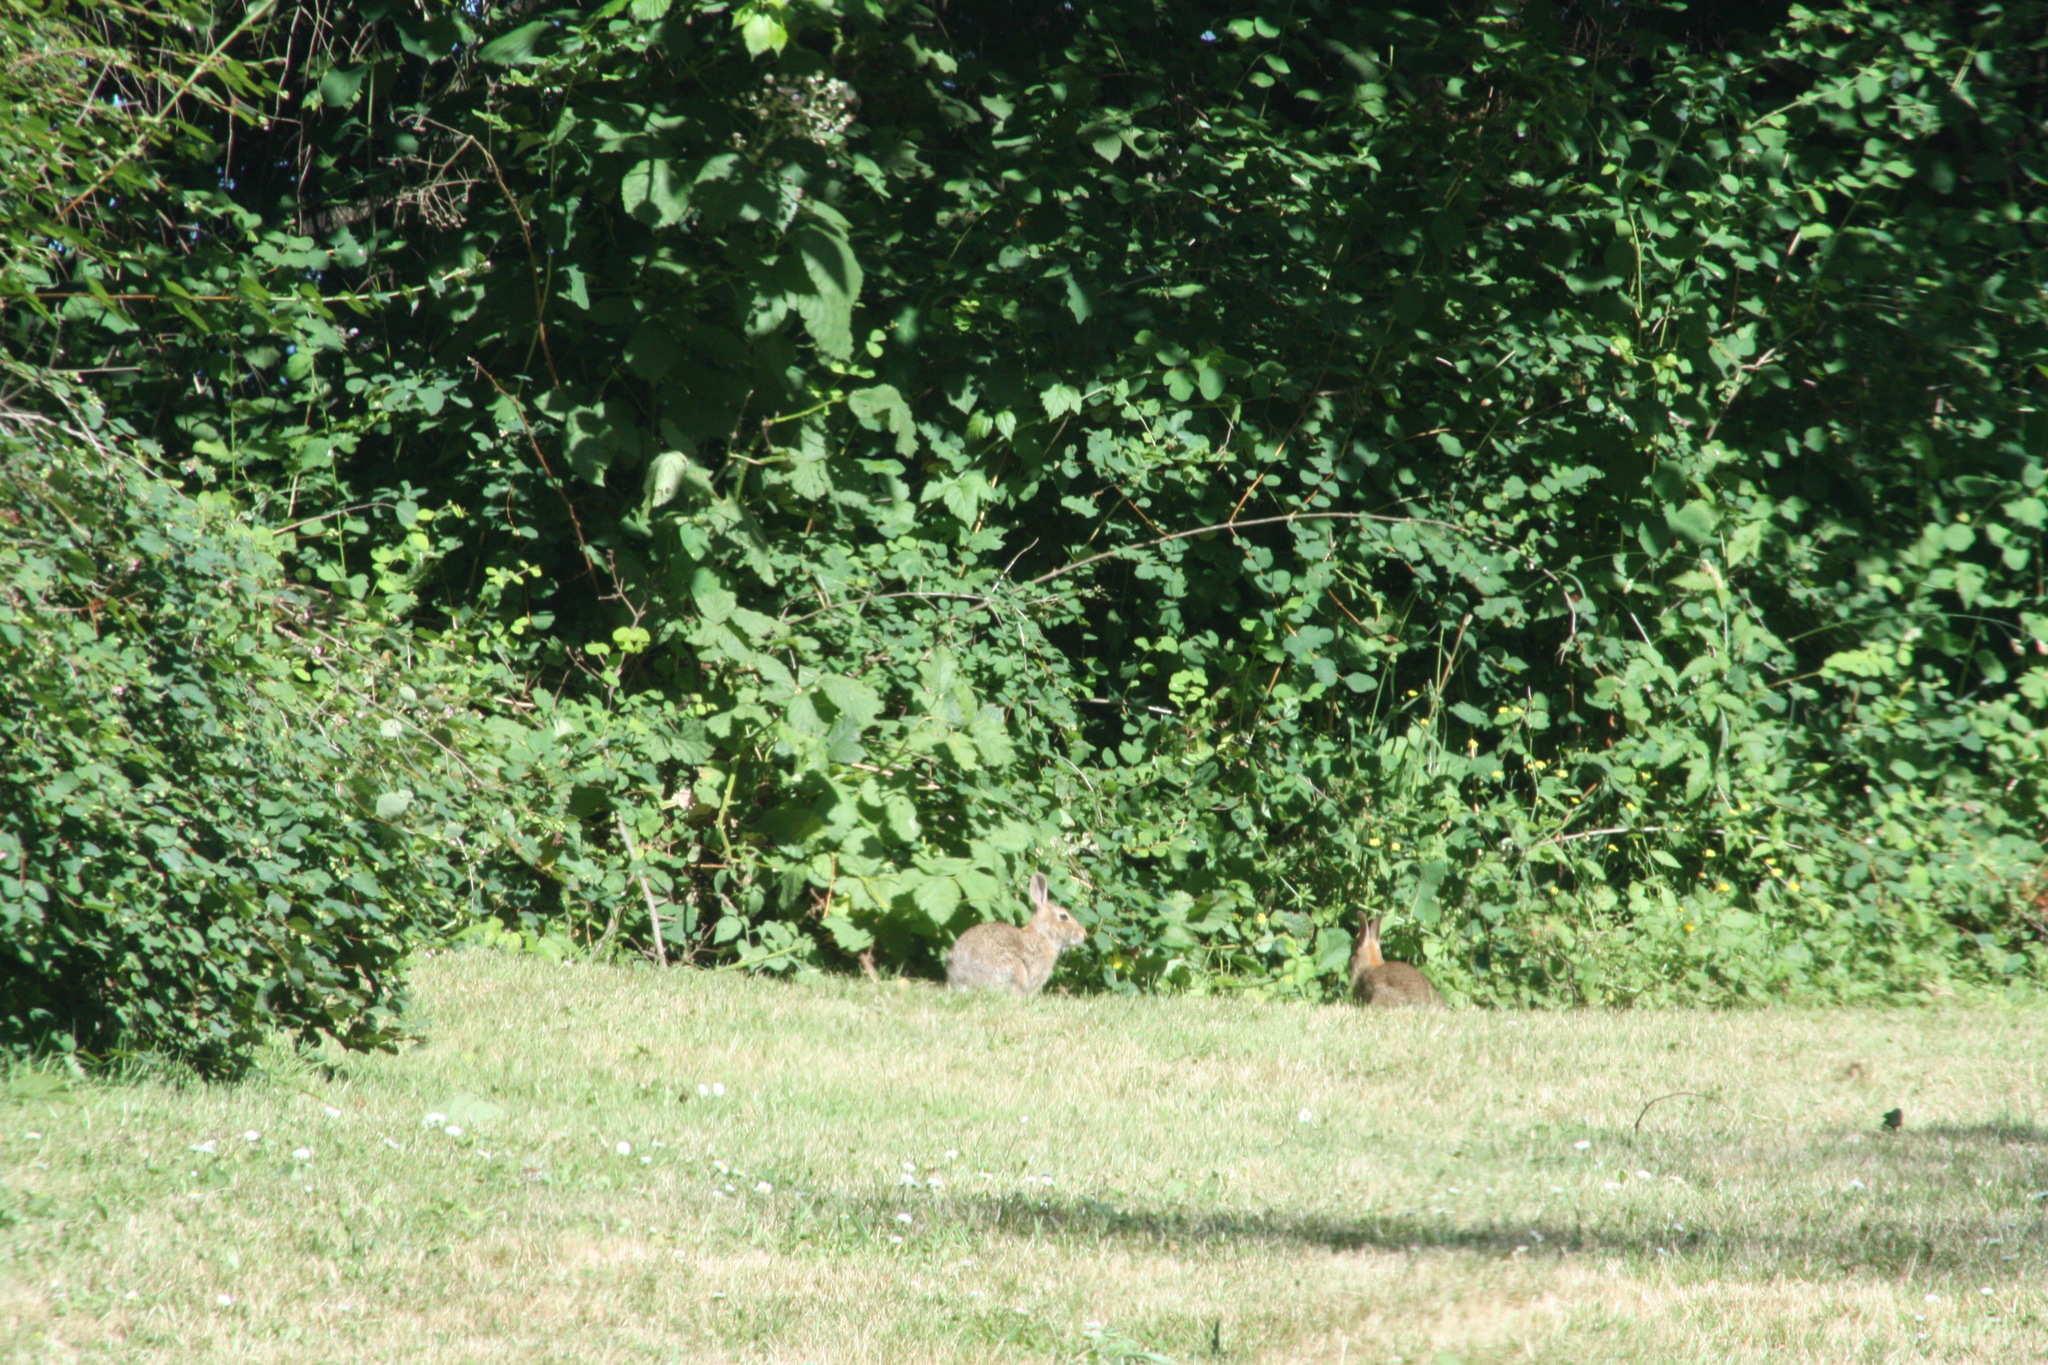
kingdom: Animalia
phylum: Chordata
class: Mammalia
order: Lagomorpha
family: Leporidae
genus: Sylvilagus
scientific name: Sylvilagus floridanus
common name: Eastern cottontail
